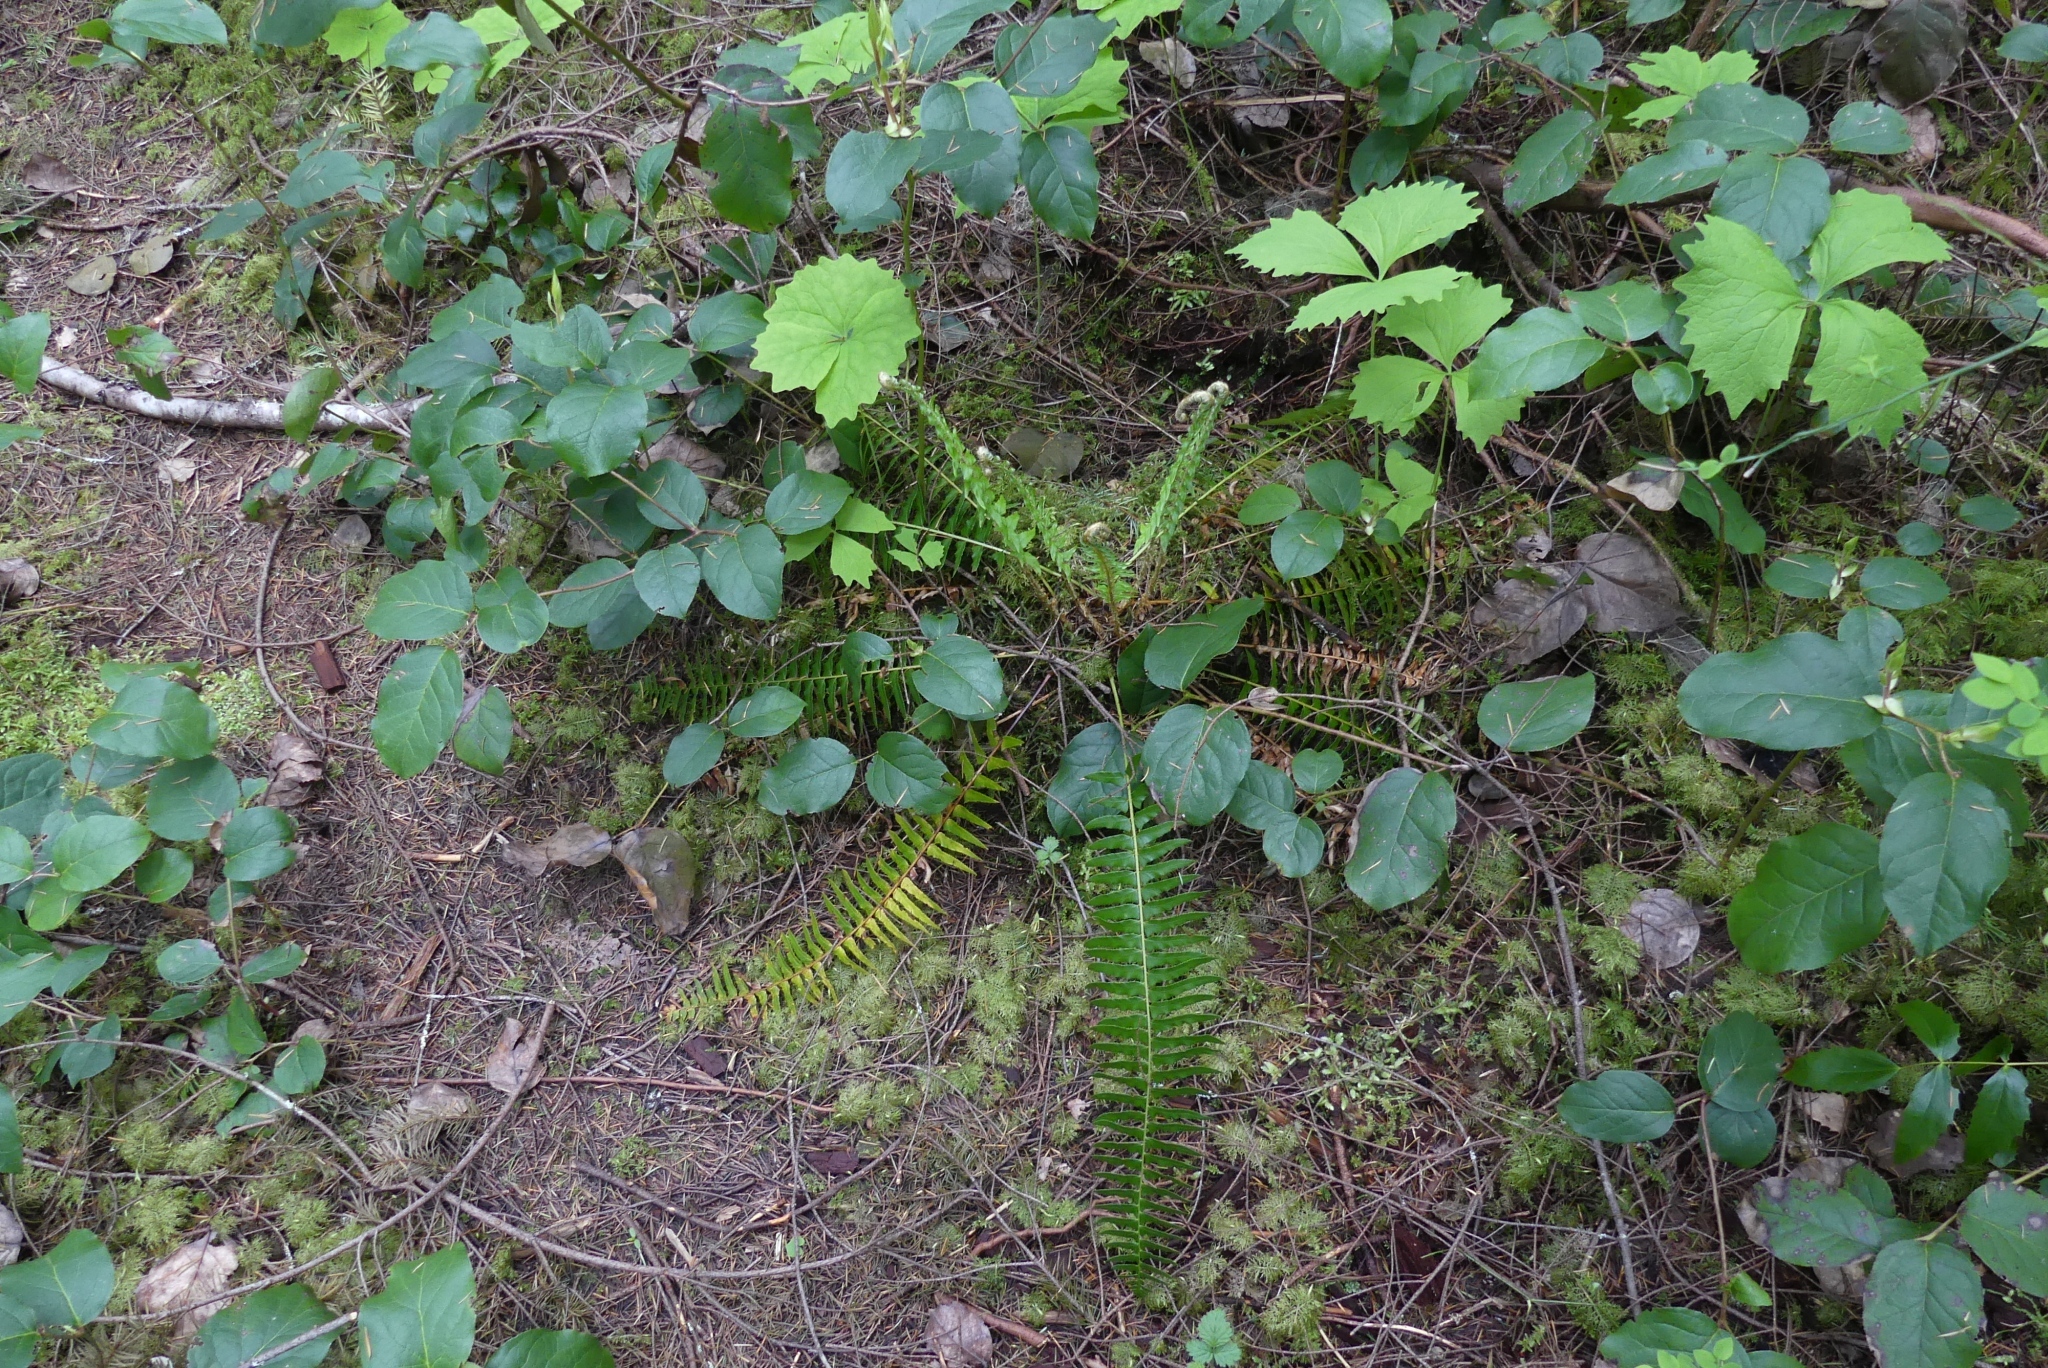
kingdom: Plantae
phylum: Tracheophyta
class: Polypodiopsida
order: Polypodiales
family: Dryopteridaceae
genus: Polystichum
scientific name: Polystichum munitum
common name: Western sword-fern
